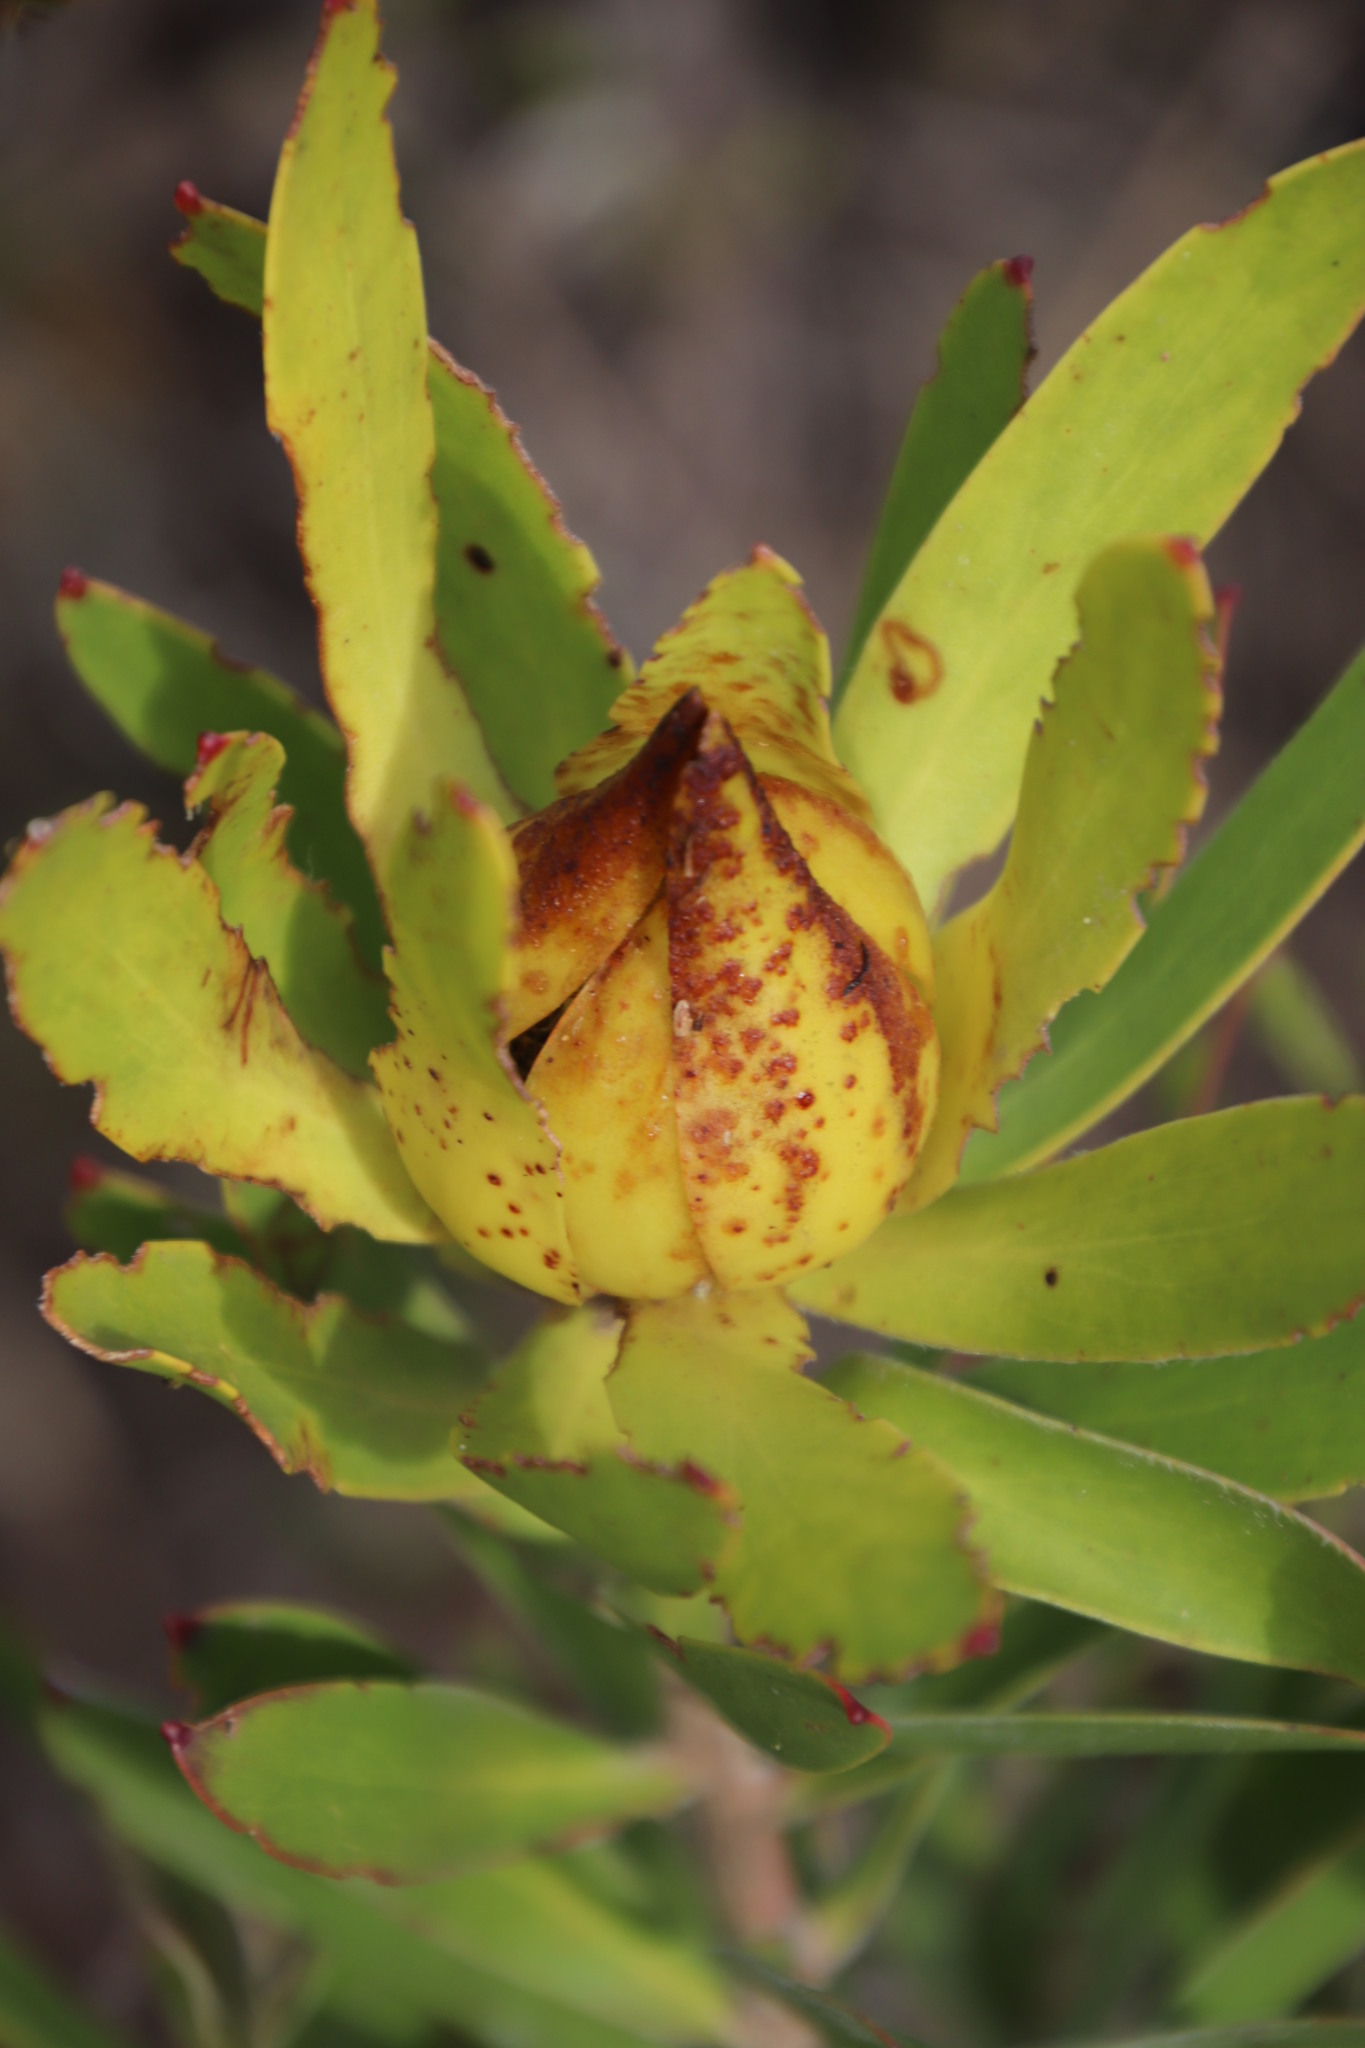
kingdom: Plantae
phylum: Tracheophyta
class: Magnoliopsida
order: Proteales
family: Proteaceae
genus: Leucadendron
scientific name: Leucadendron laureolum
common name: Golden sunshinebush
